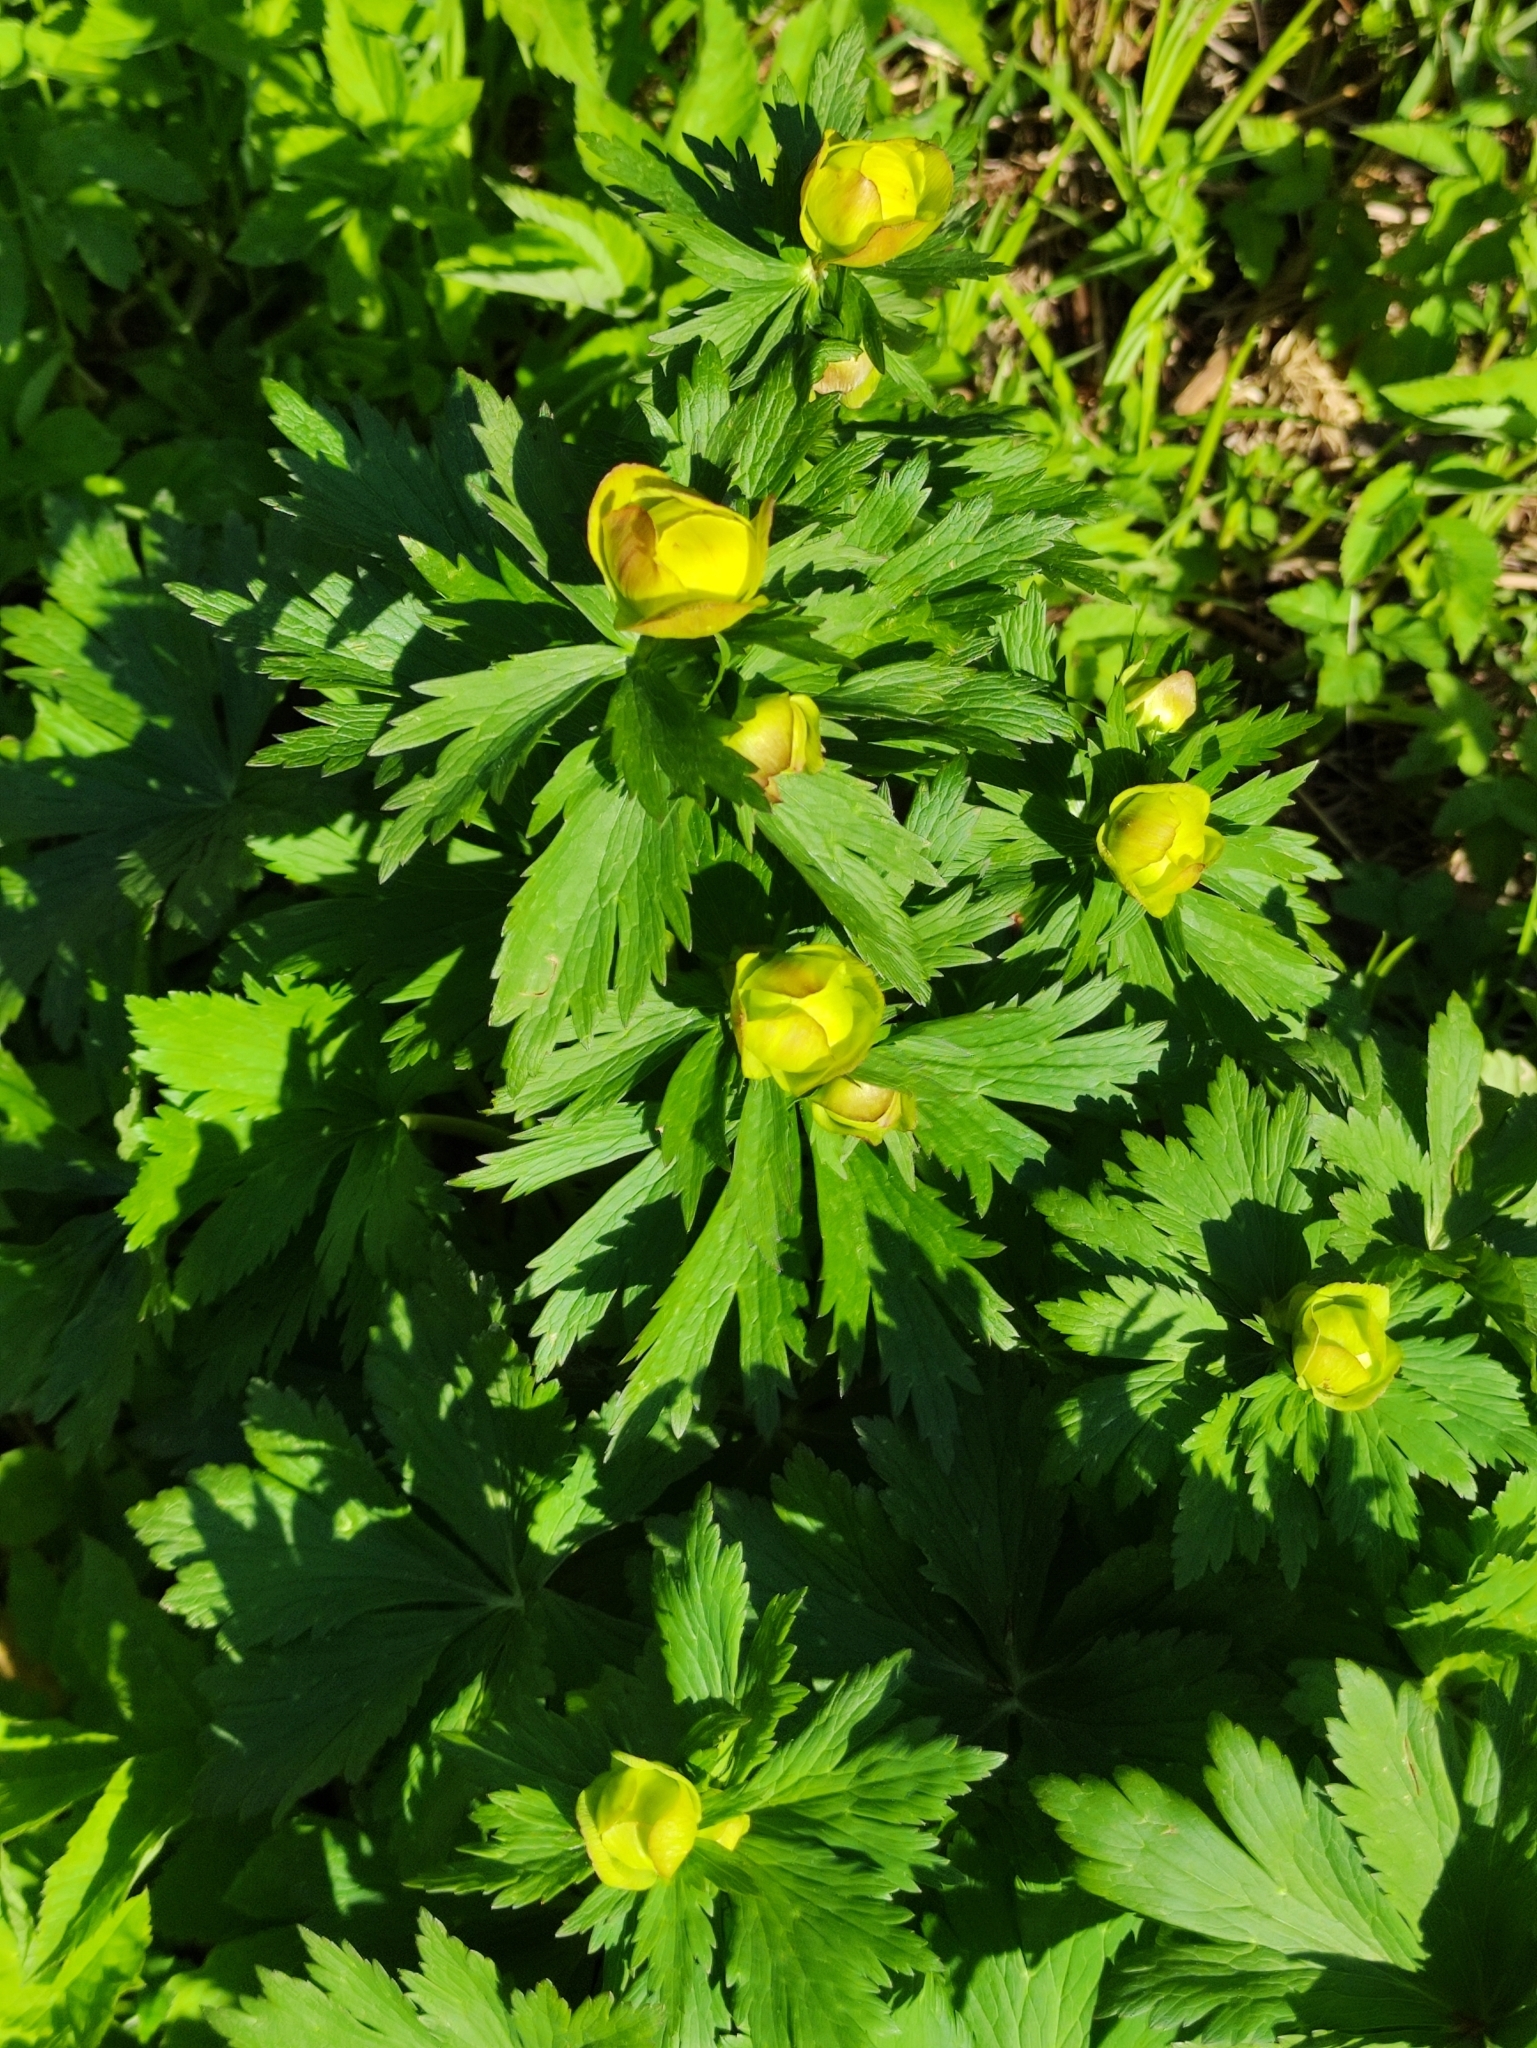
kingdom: Plantae
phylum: Tracheophyta
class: Magnoliopsida
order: Ranunculales
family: Ranunculaceae
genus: Trollius
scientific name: Trollius europaeus
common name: European globeflower
